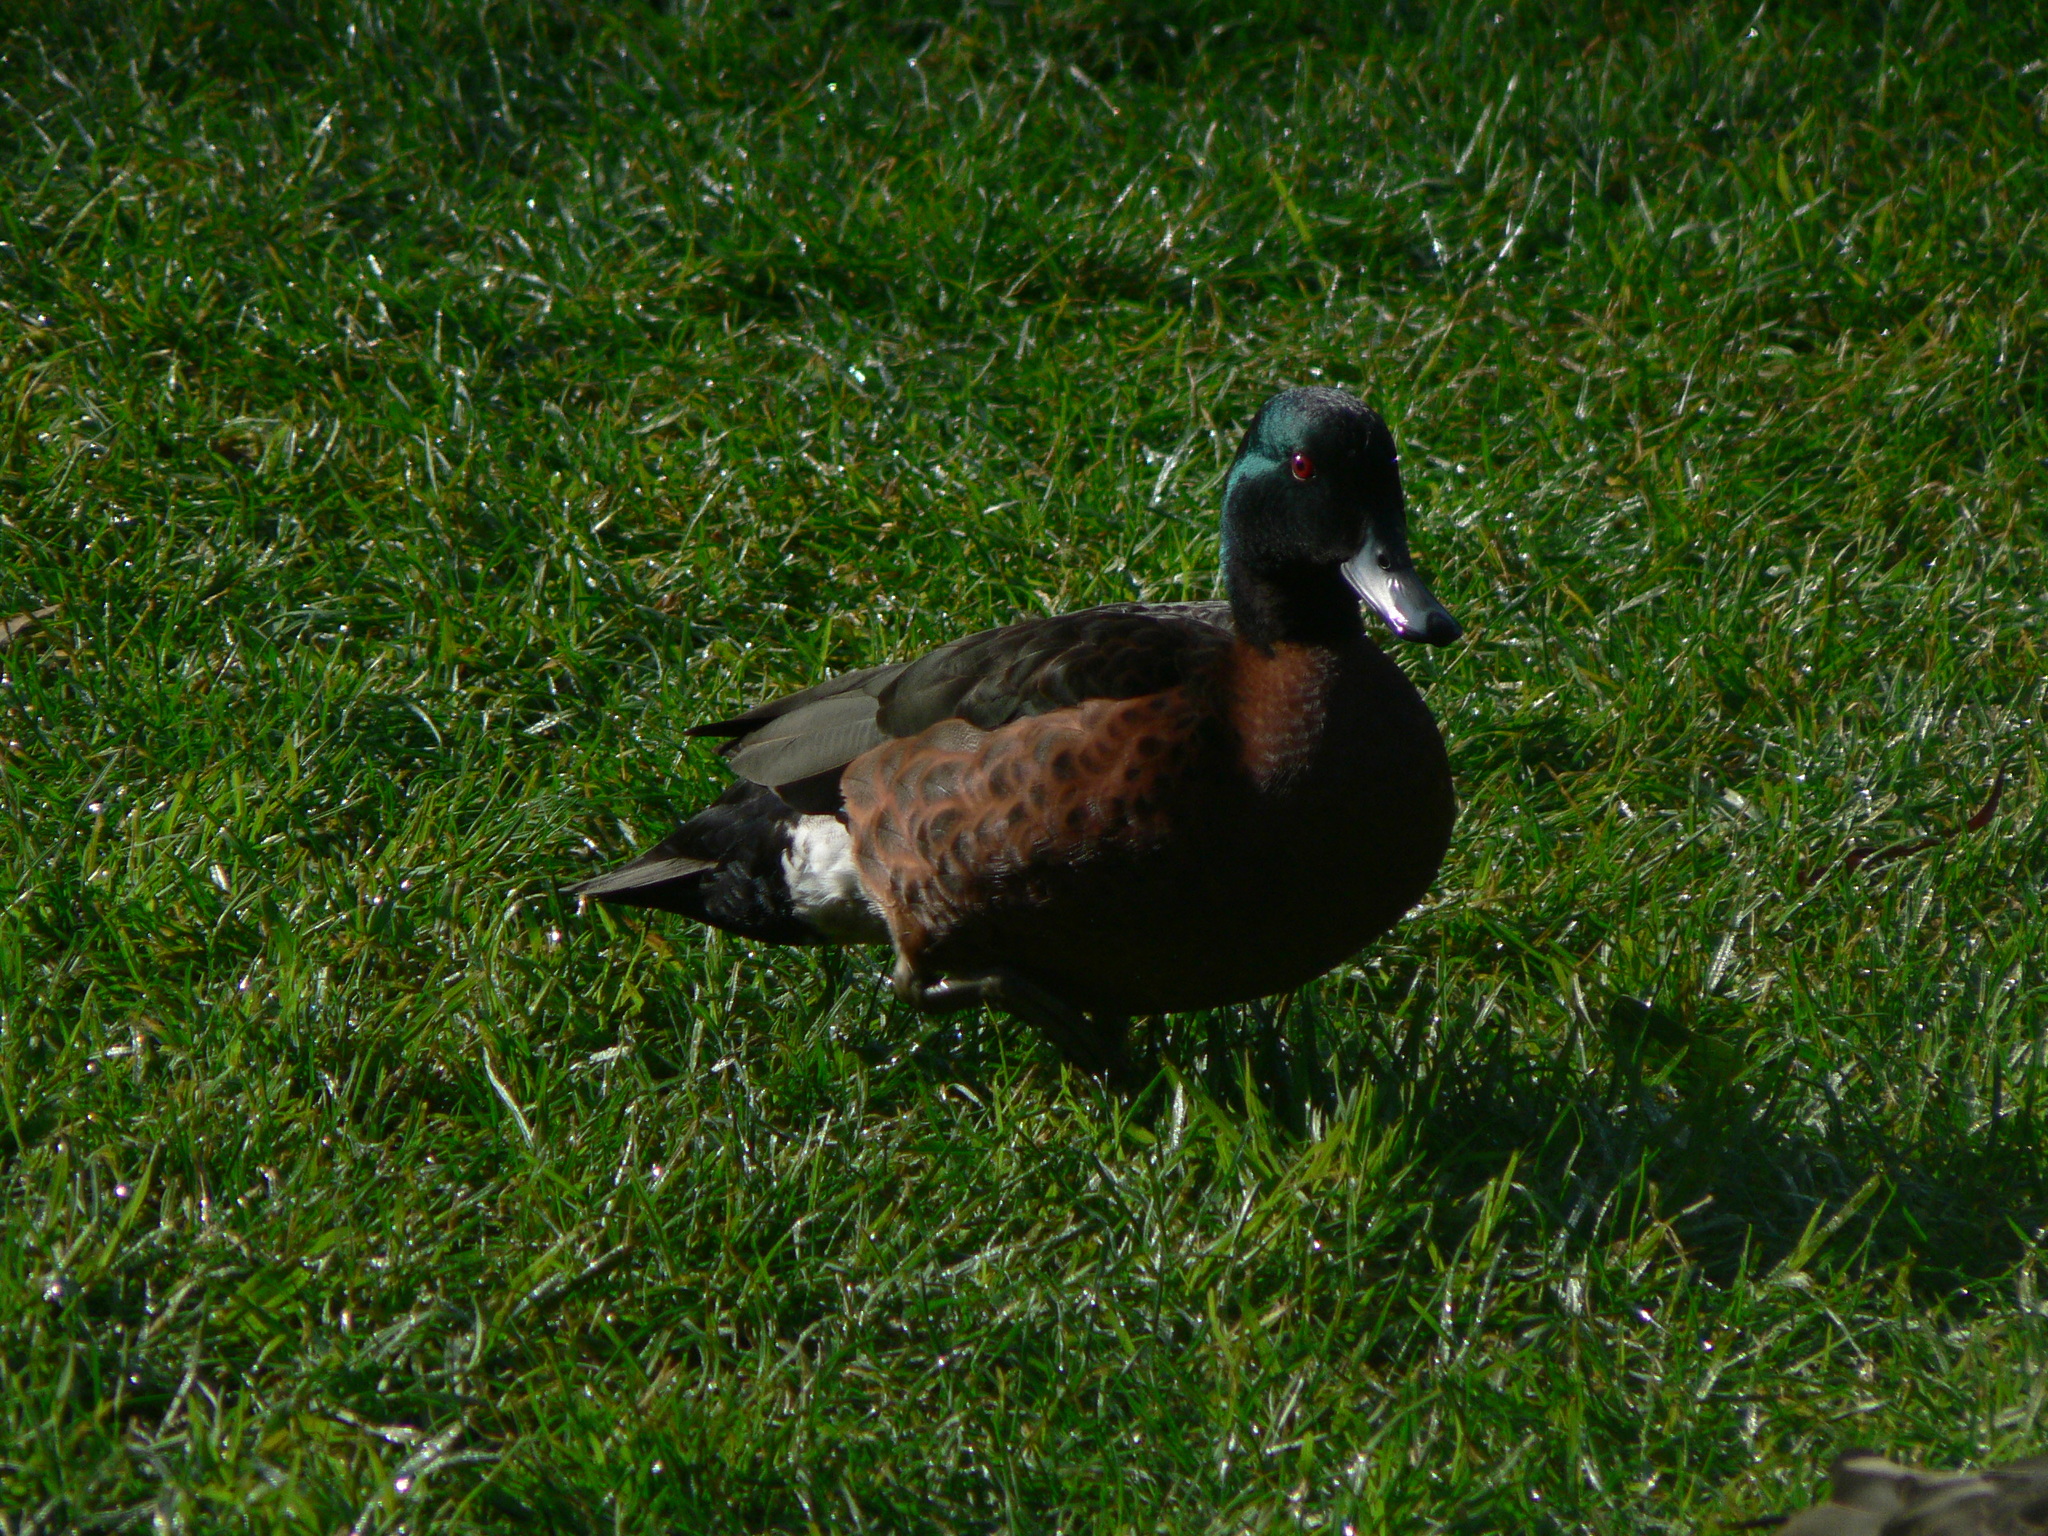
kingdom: Animalia
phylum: Chordata
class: Aves
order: Anseriformes
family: Anatidae
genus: Anas
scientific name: Anas castanea
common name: Chestnut teal
